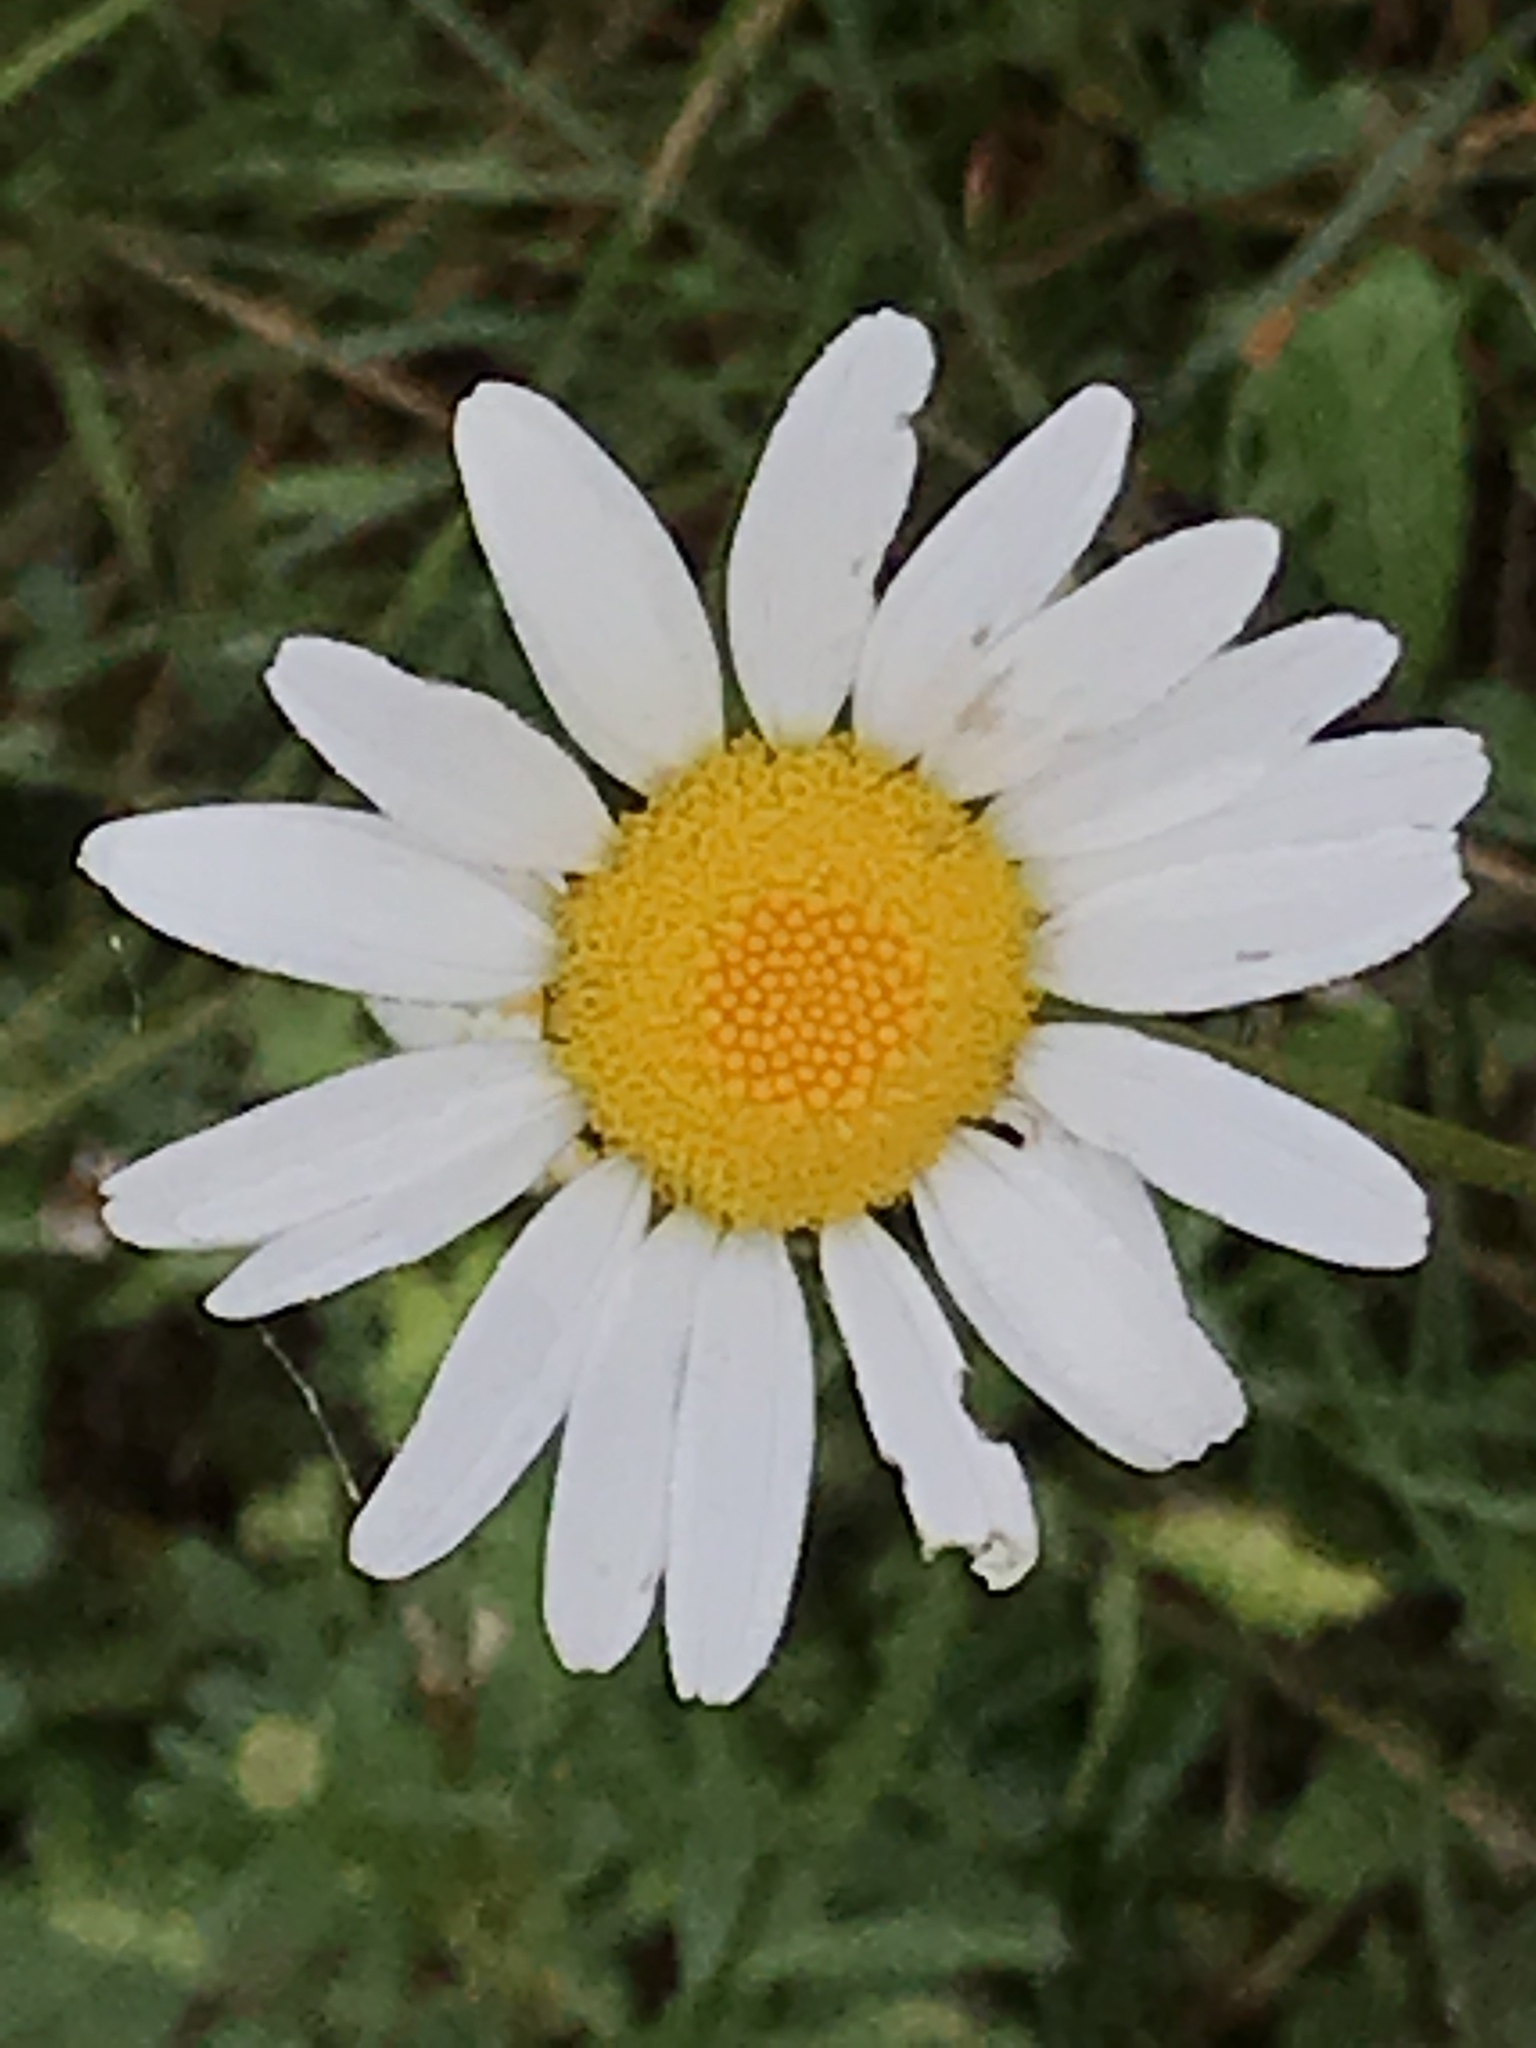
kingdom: Plantae
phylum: Tracheophyta
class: Magnoliopsida
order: Asterales
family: Asteraceae
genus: Leucanthemum
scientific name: Leucanthemum vulgare
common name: Oxeye daisy
